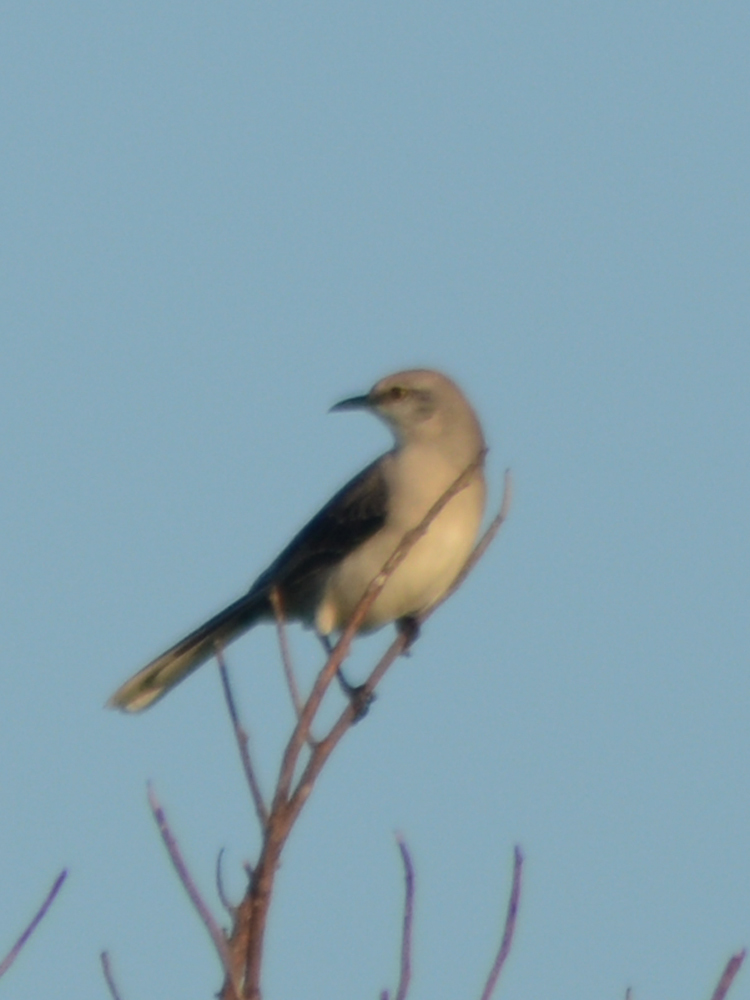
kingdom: Animalia
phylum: Chordata
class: Aves
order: Passeriformes
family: Mimidae
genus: Mimus
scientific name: Mimus gilvus
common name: Tropical mockingbird
